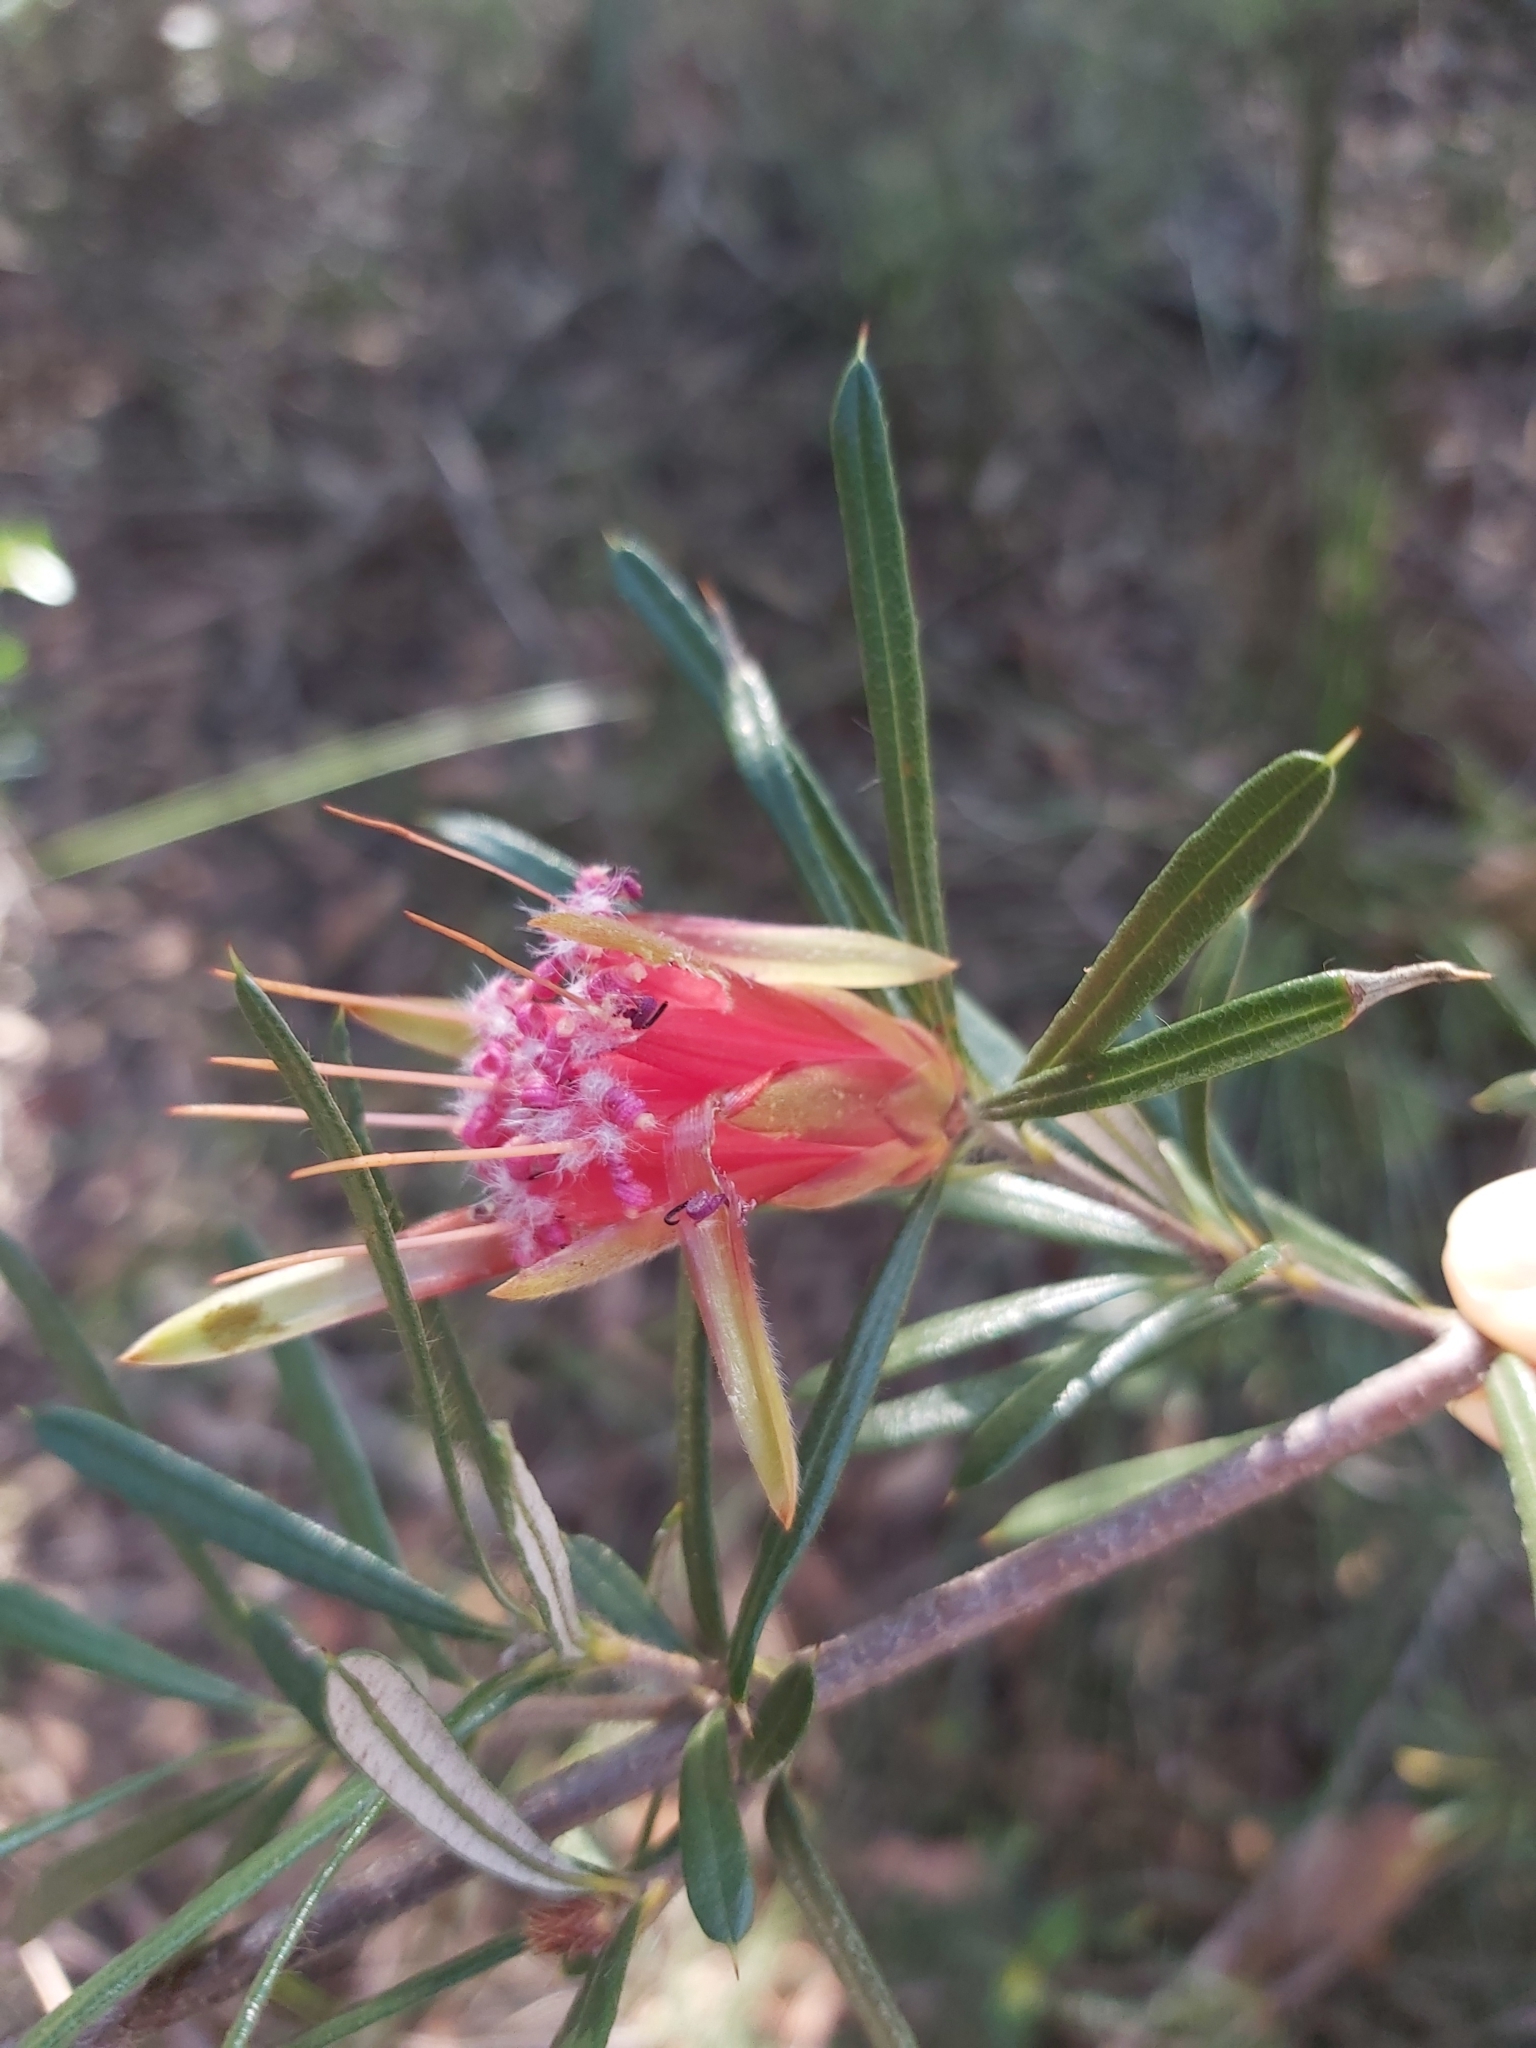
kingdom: Plantae
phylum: Tracheophyta
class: Magnoliopsida
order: Proteales
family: Proteaceae
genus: Lambertia
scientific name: Lambertia formosa
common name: Mountain-devil
